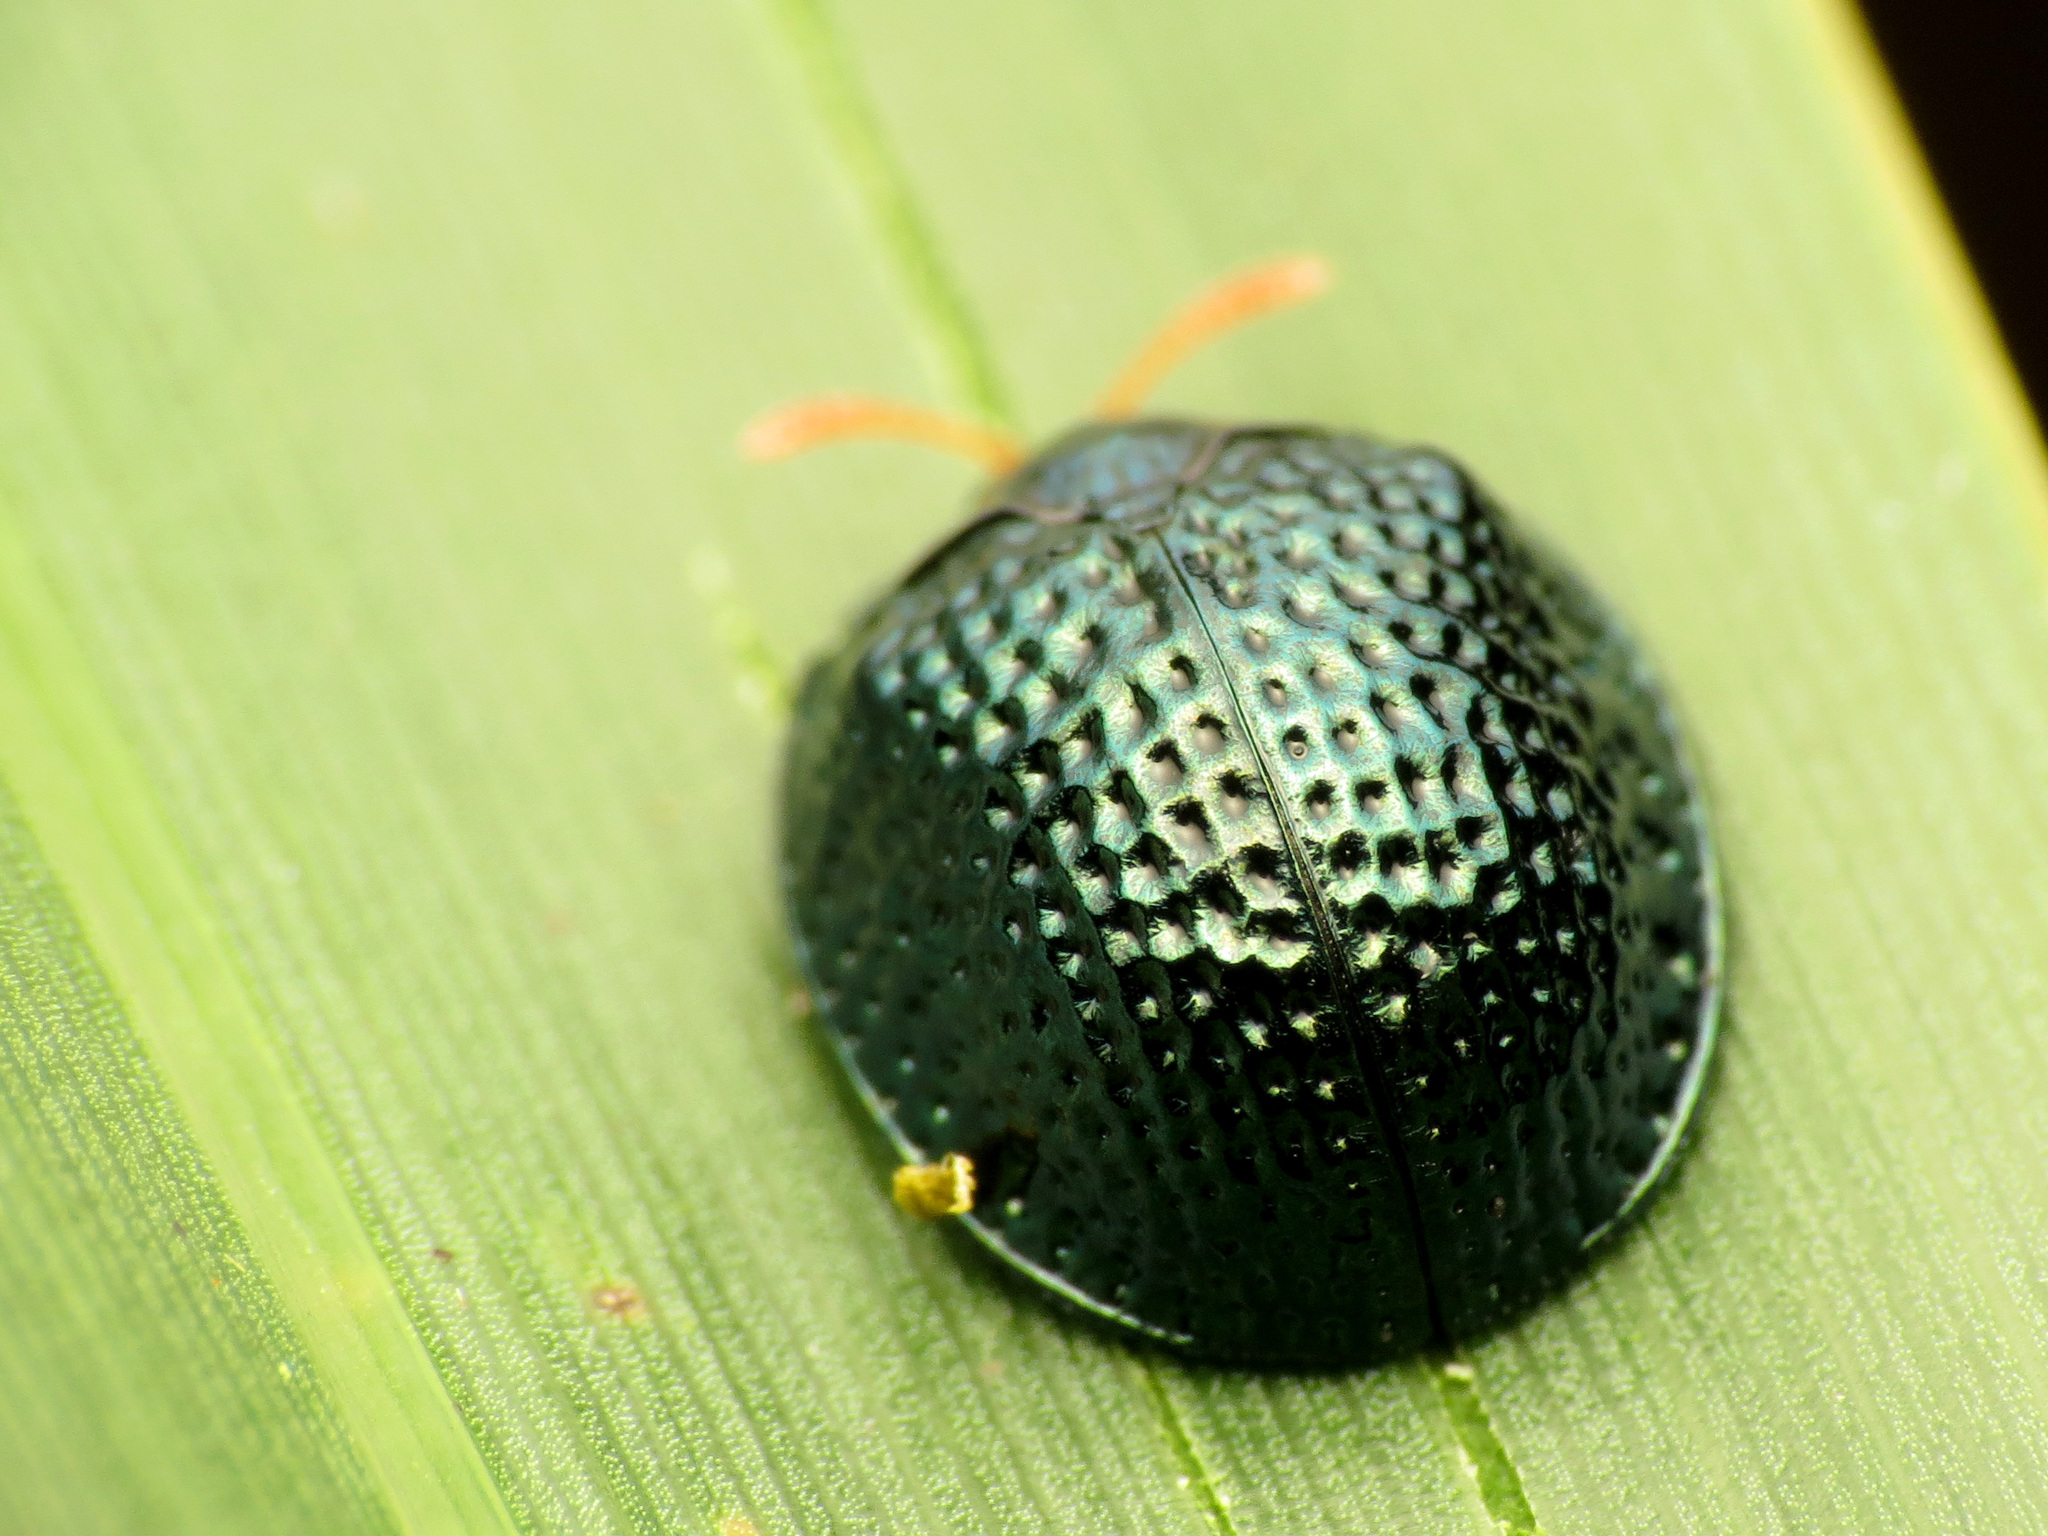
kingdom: Animalia
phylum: Arthropoda
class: Insecta
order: Coleoptera
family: Chrysomelidae
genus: Hemisphaerota
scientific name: Hemisphaerota cyanea
